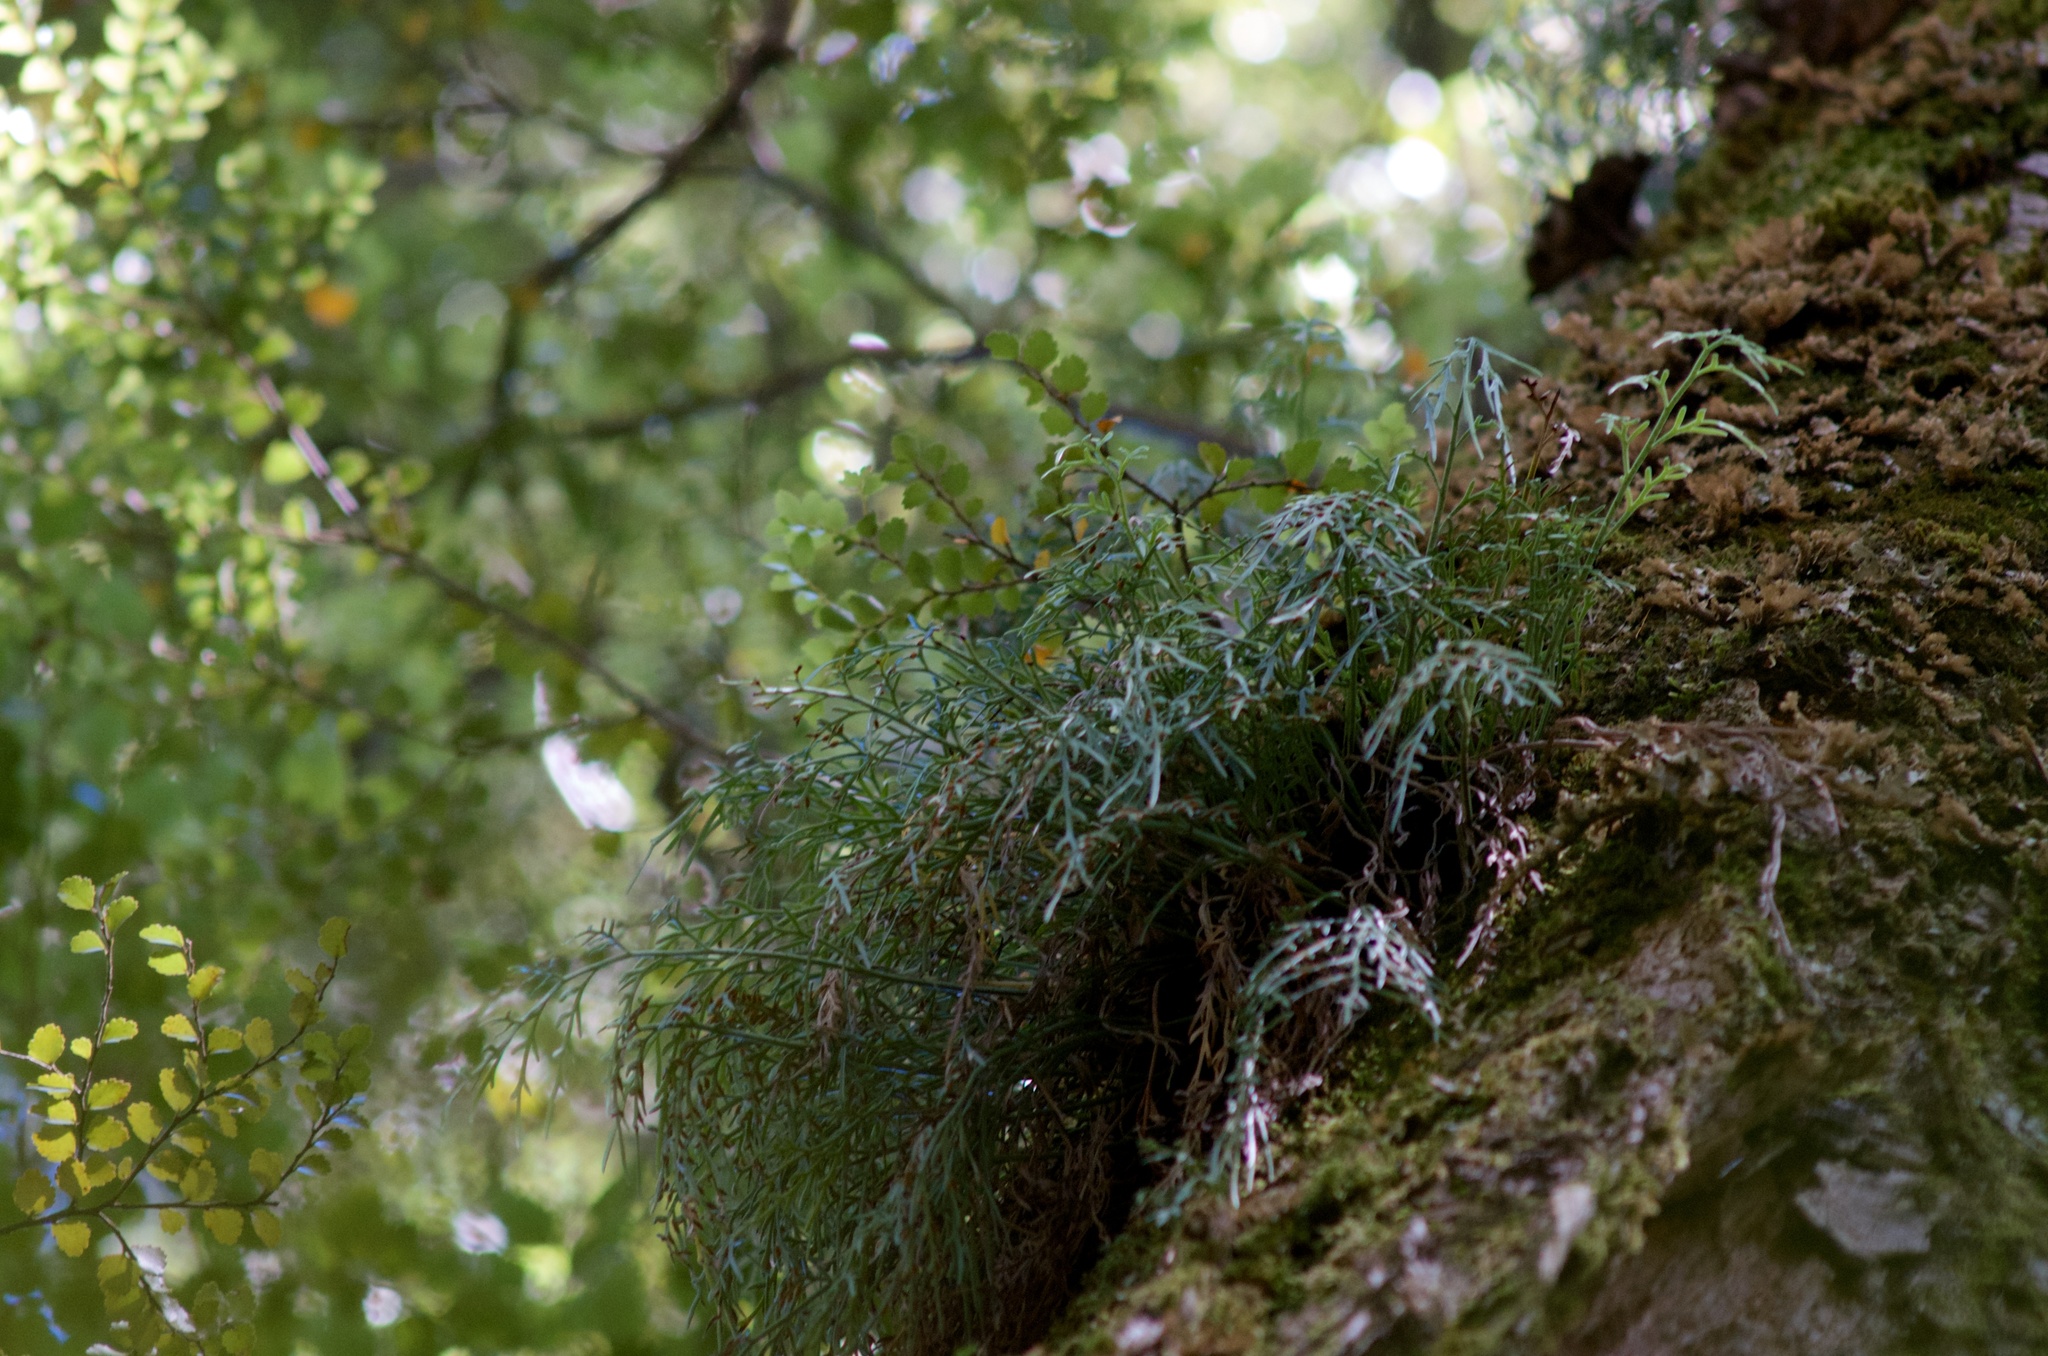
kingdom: Plantae
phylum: Tracheophyta
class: Polypodiopsida
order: Polypodiales
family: Aspleniaceae
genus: Asplenium
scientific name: Asplenium flaccidum
